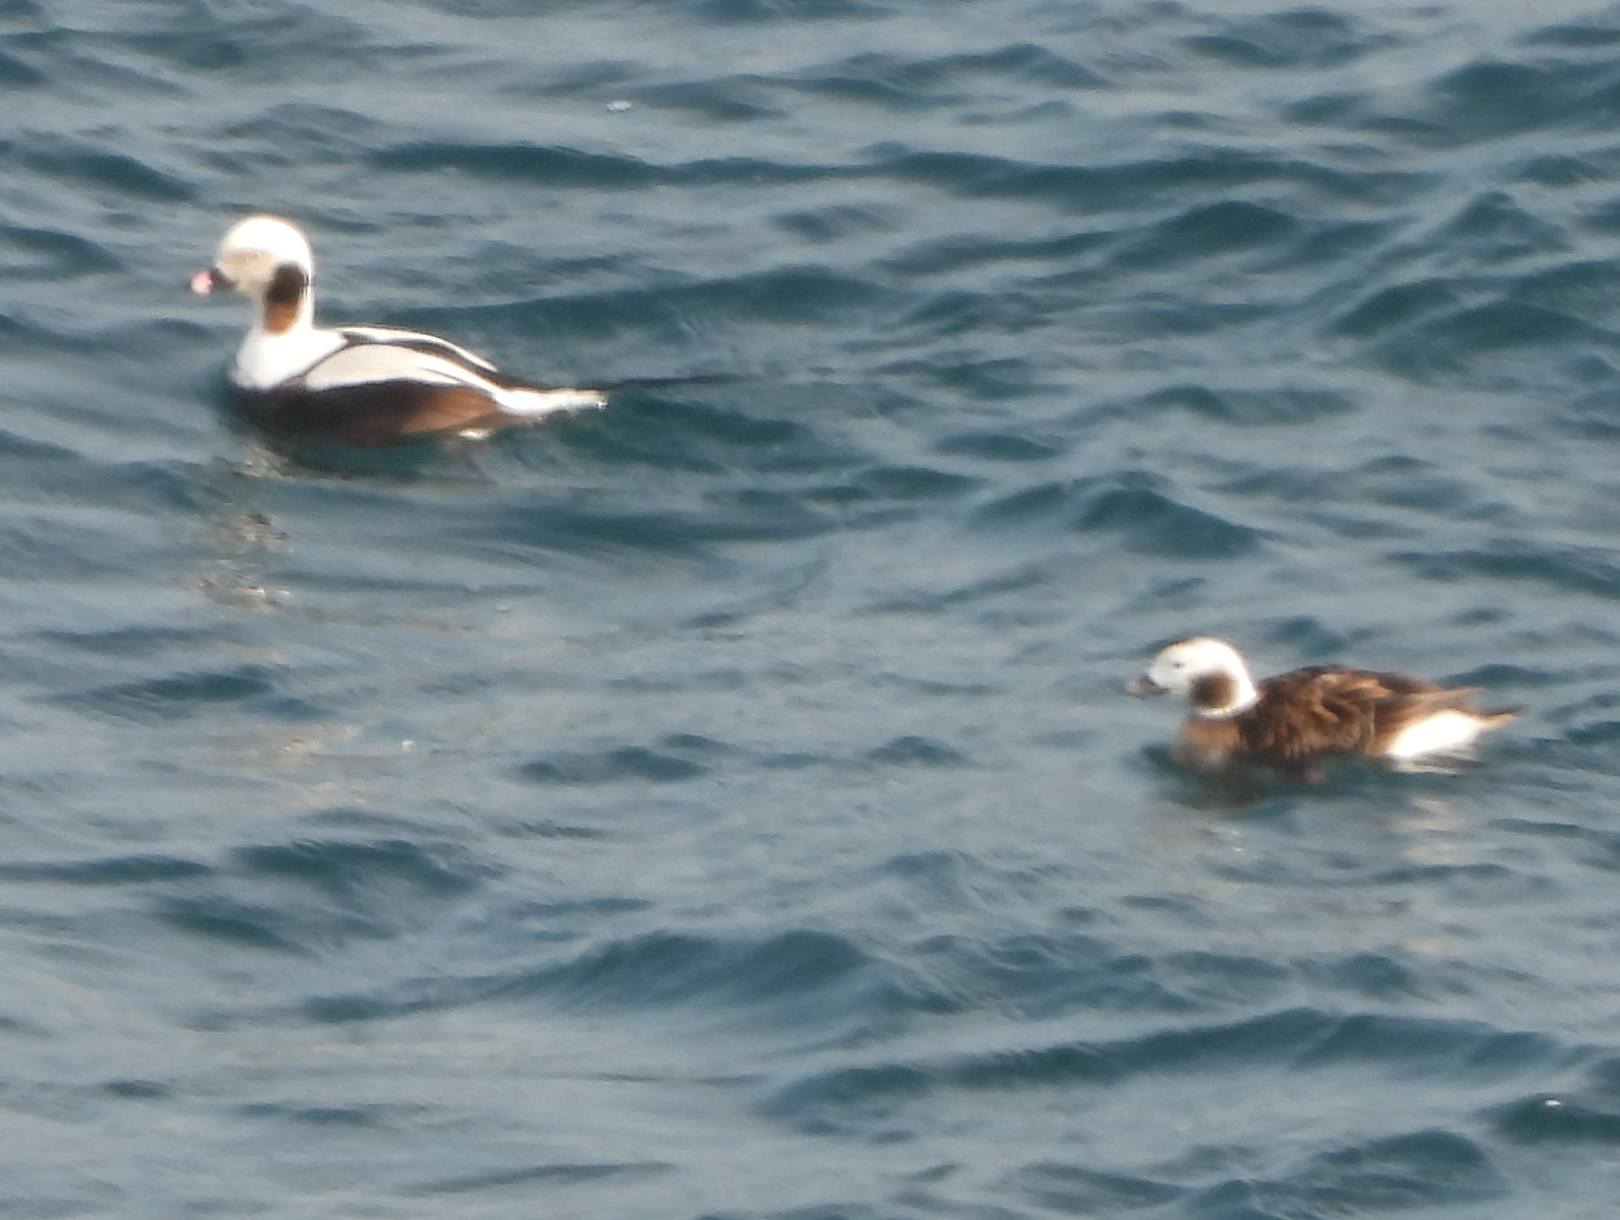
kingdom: Animalia
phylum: Chordata
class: Aves
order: Anseriformes
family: Anatidae
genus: Clangula
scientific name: Clangula hyemalis
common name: Long-tailed duck
